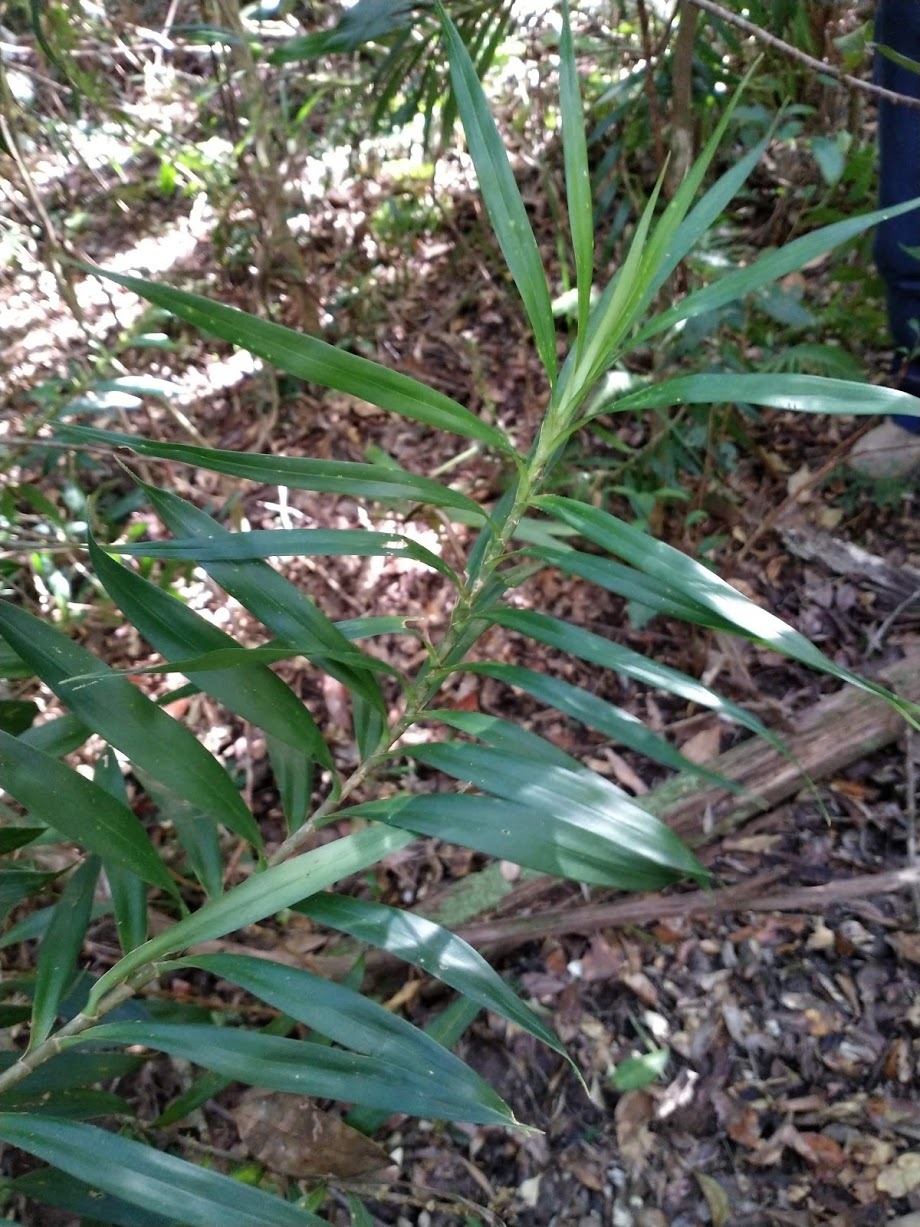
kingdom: Plantae
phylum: Tracheophyta
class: Liliopsida
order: Pandanales
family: Pandanaceae
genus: Freycinetia
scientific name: Freycinetia scandens
